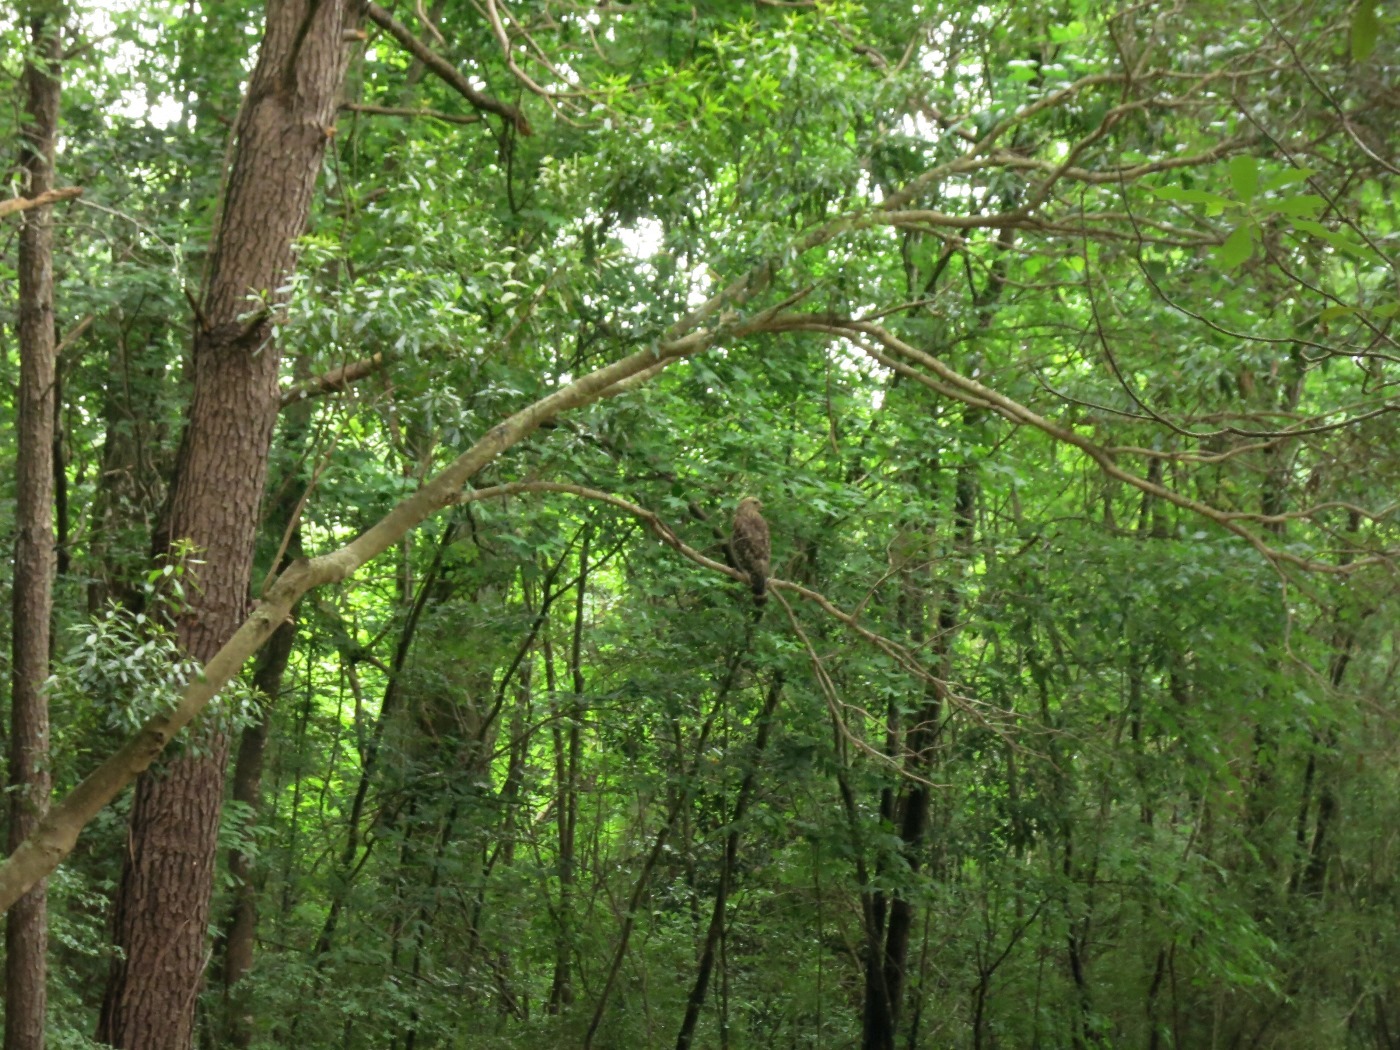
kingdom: Animalia
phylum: Chordata
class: Aves
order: Accipitriformes
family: Accipitridae
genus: Buteo
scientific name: Buteo lineatus
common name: Red-shouldered hawk
